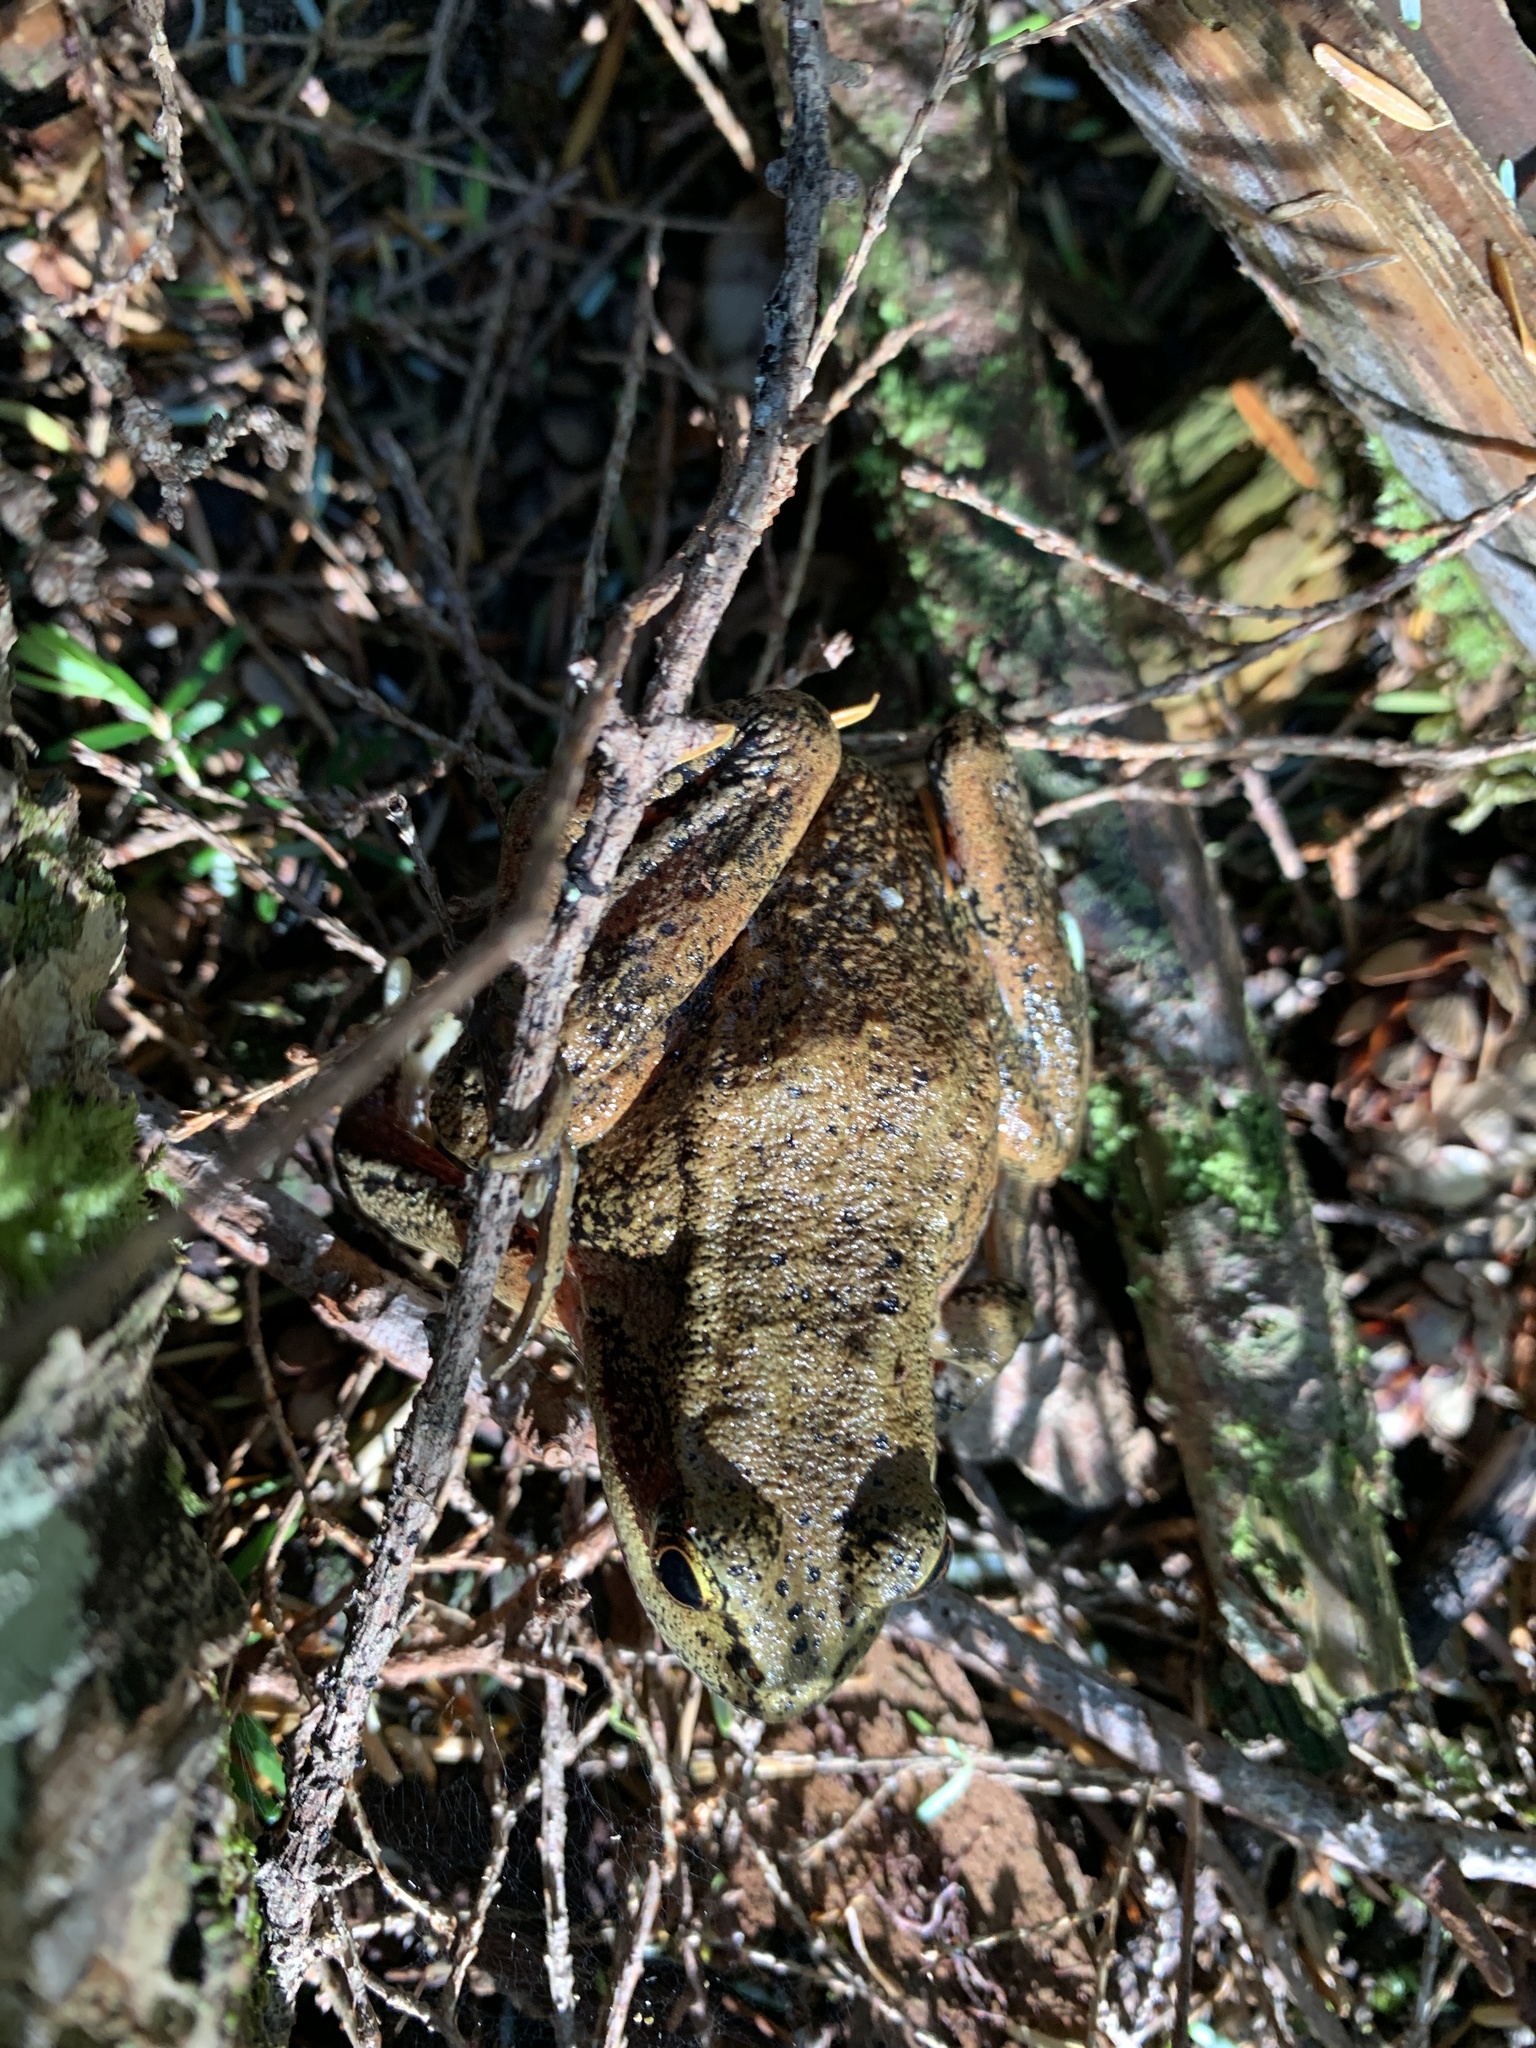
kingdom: Animalia
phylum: Chordata
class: Amphibia
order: Anura
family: Ranidae
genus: Rana
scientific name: Rana aurora
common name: Red-legged frog
